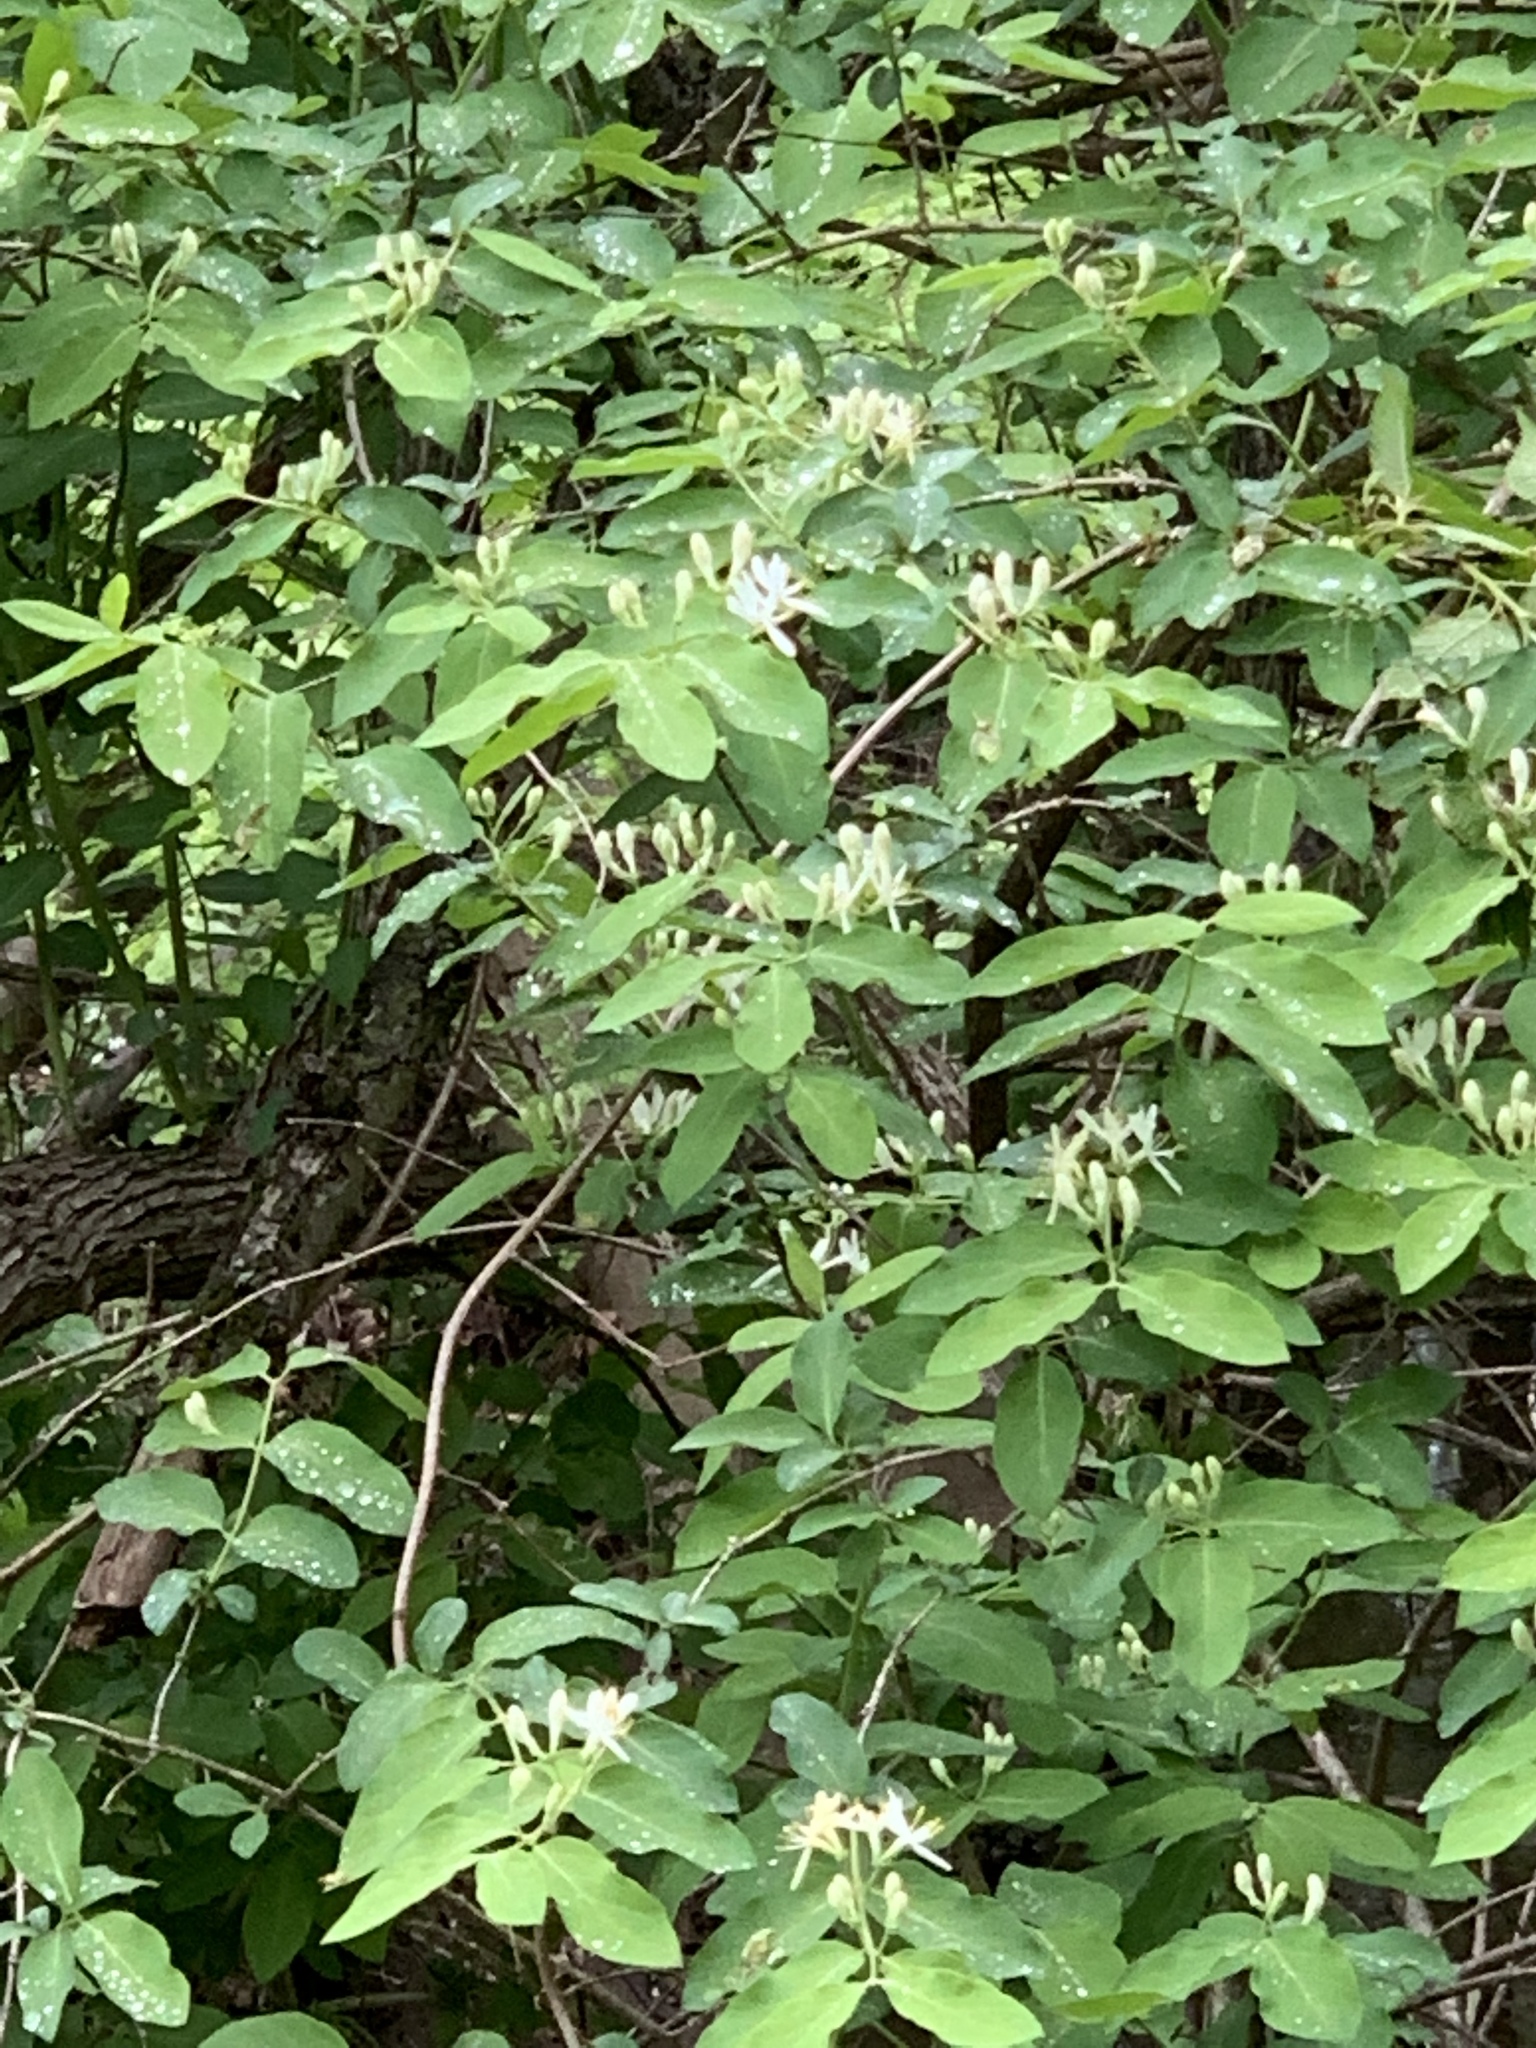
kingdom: Plantae
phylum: Tracheophyta
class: Magnoliopsida
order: Dipsacales
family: Caprifoliaceae
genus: Lonicera
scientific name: Lonicera
